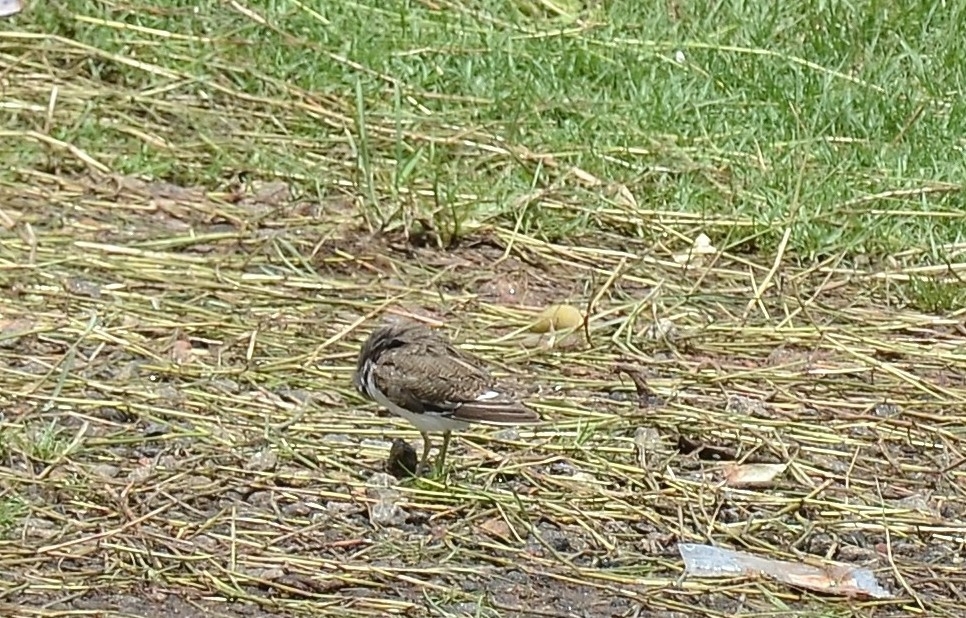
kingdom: Animalia
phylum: Chordata
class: Aves
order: Charadriiformes
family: Scolopacidae
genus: Actitis
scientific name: Actitis hypoleucos
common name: Common sandpiper
